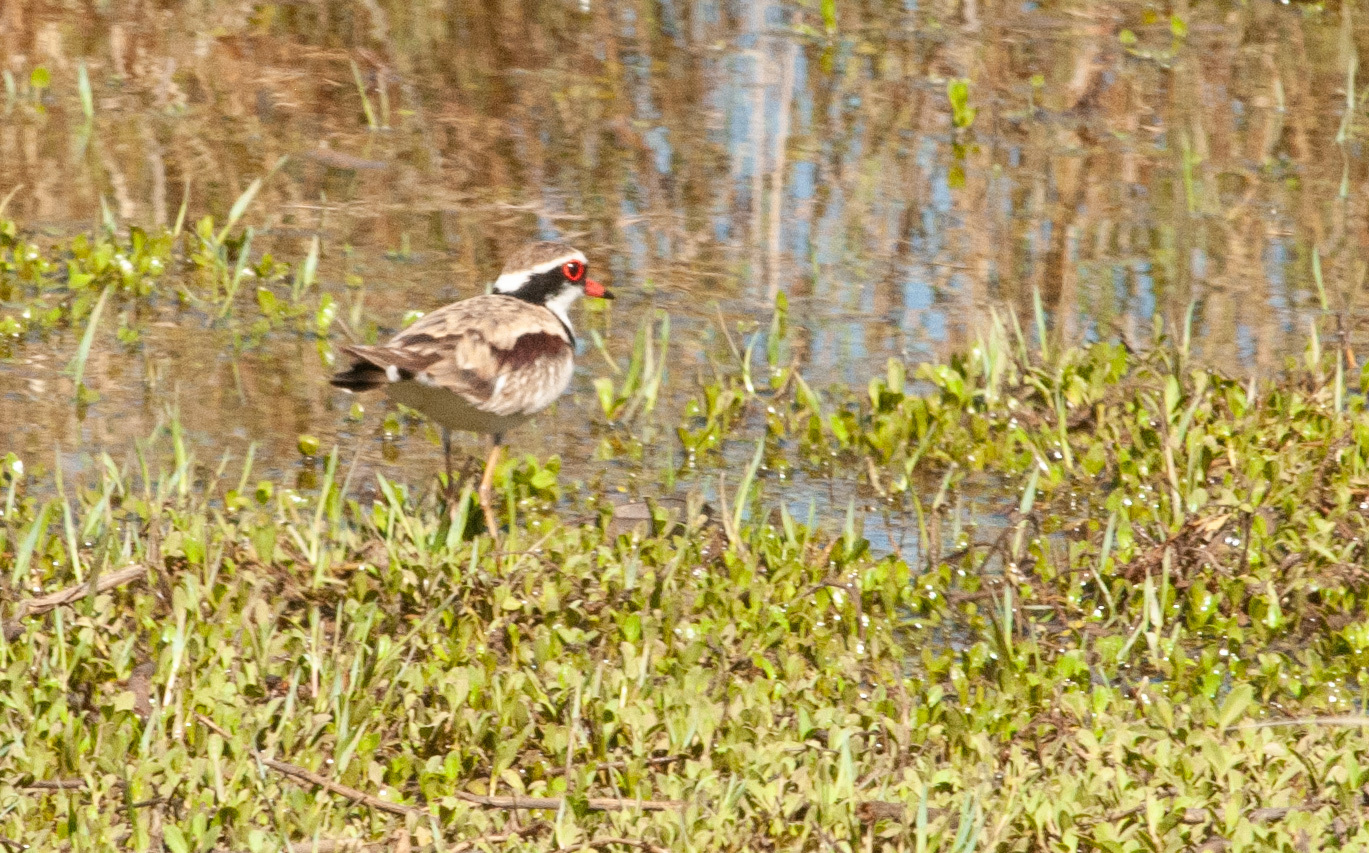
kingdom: Animalia
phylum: Chordata
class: Aves
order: Charadriiformes
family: Charadriidae
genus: Elseyornis
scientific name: Elseyornis melanops
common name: Black-fronted dotterel
